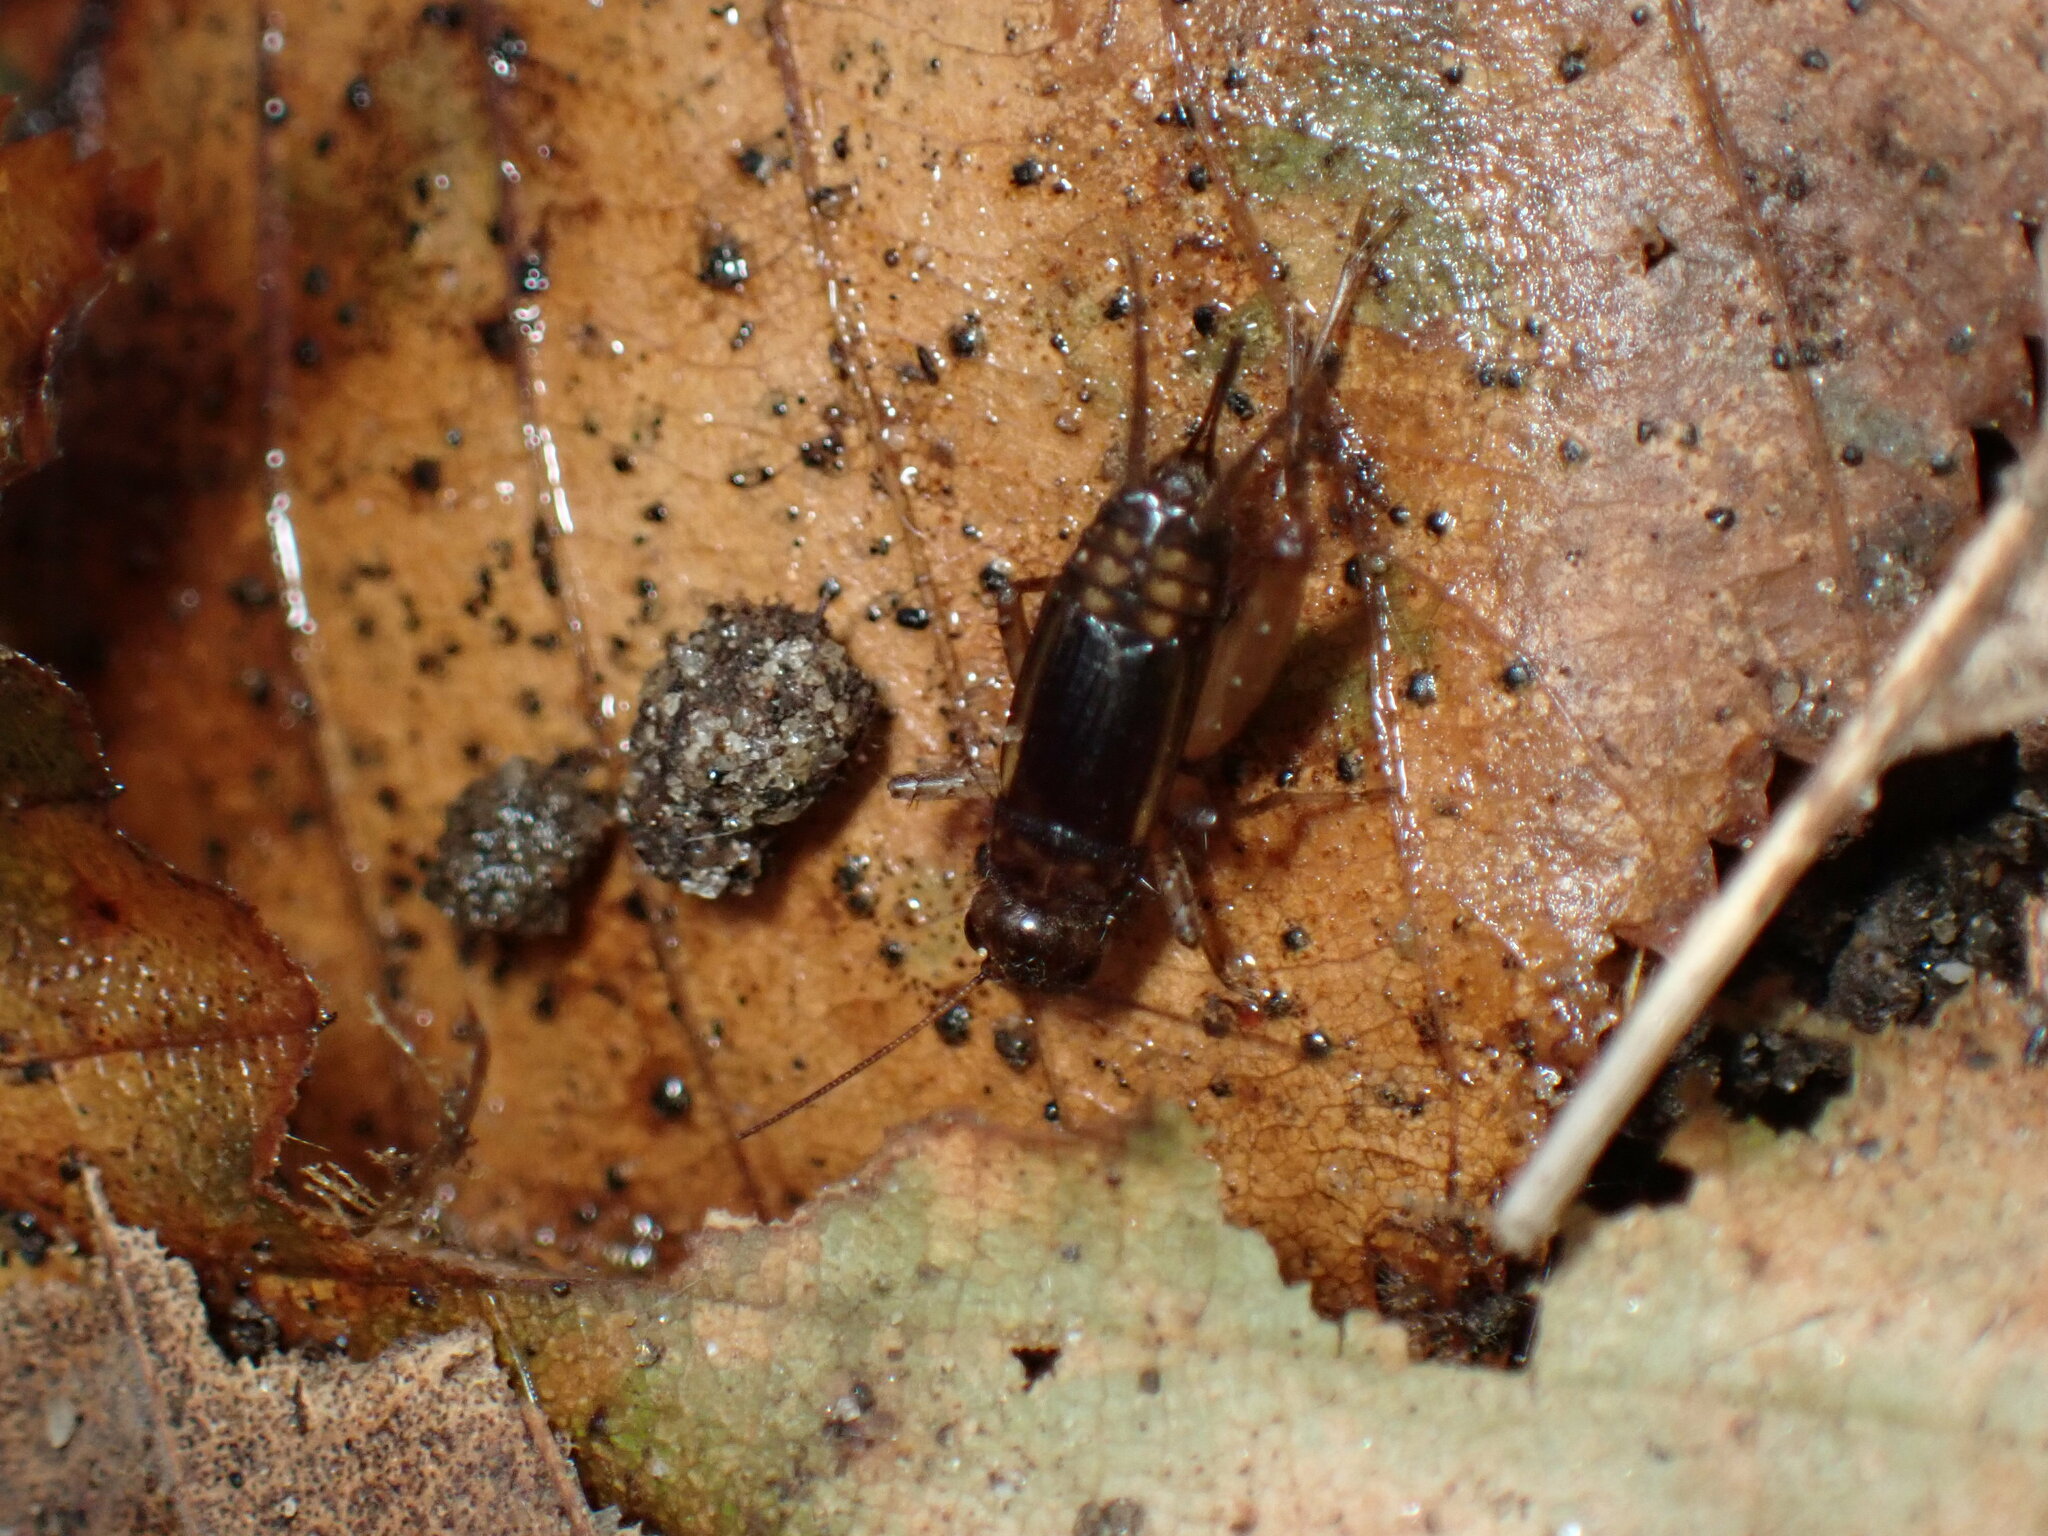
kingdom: Animalia
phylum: Arthropoda
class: Insecta
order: Orthoptera
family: Trigonidiidae
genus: Eunemobius
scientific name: Eunemobius carolinus
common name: Carolina ground cricket
